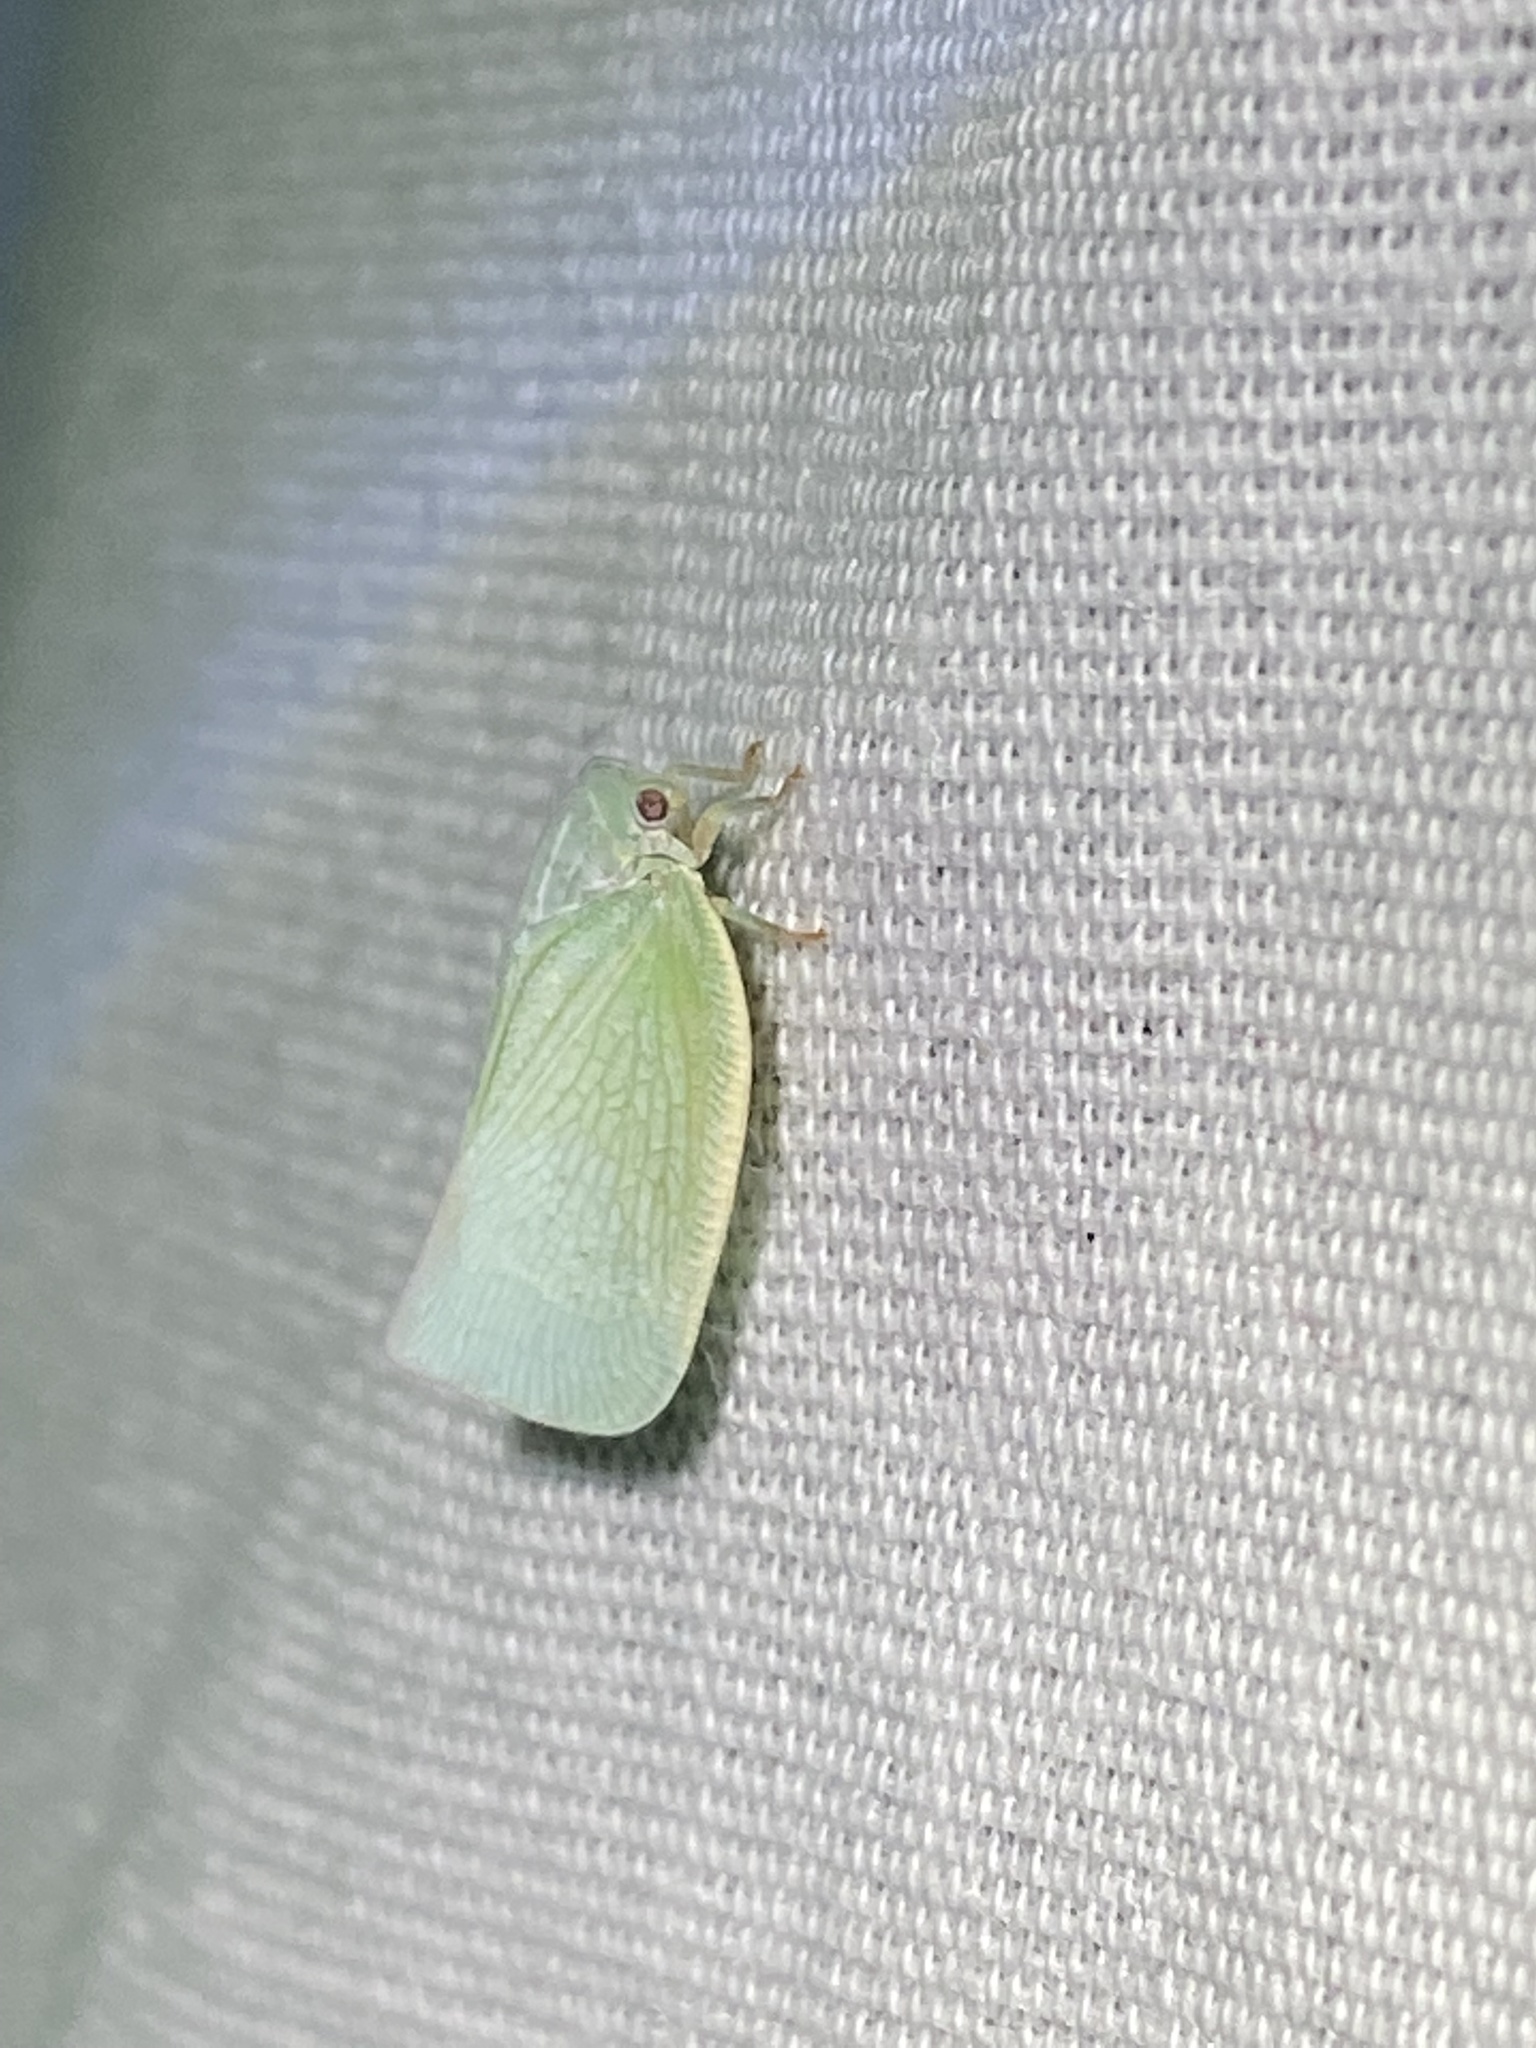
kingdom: Animalia
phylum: Arthropoda
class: Insecta
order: Hemiptera
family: Flatidae
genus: Flatormenis
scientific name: Flatormenis proxima
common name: Northern flatid planthopper
